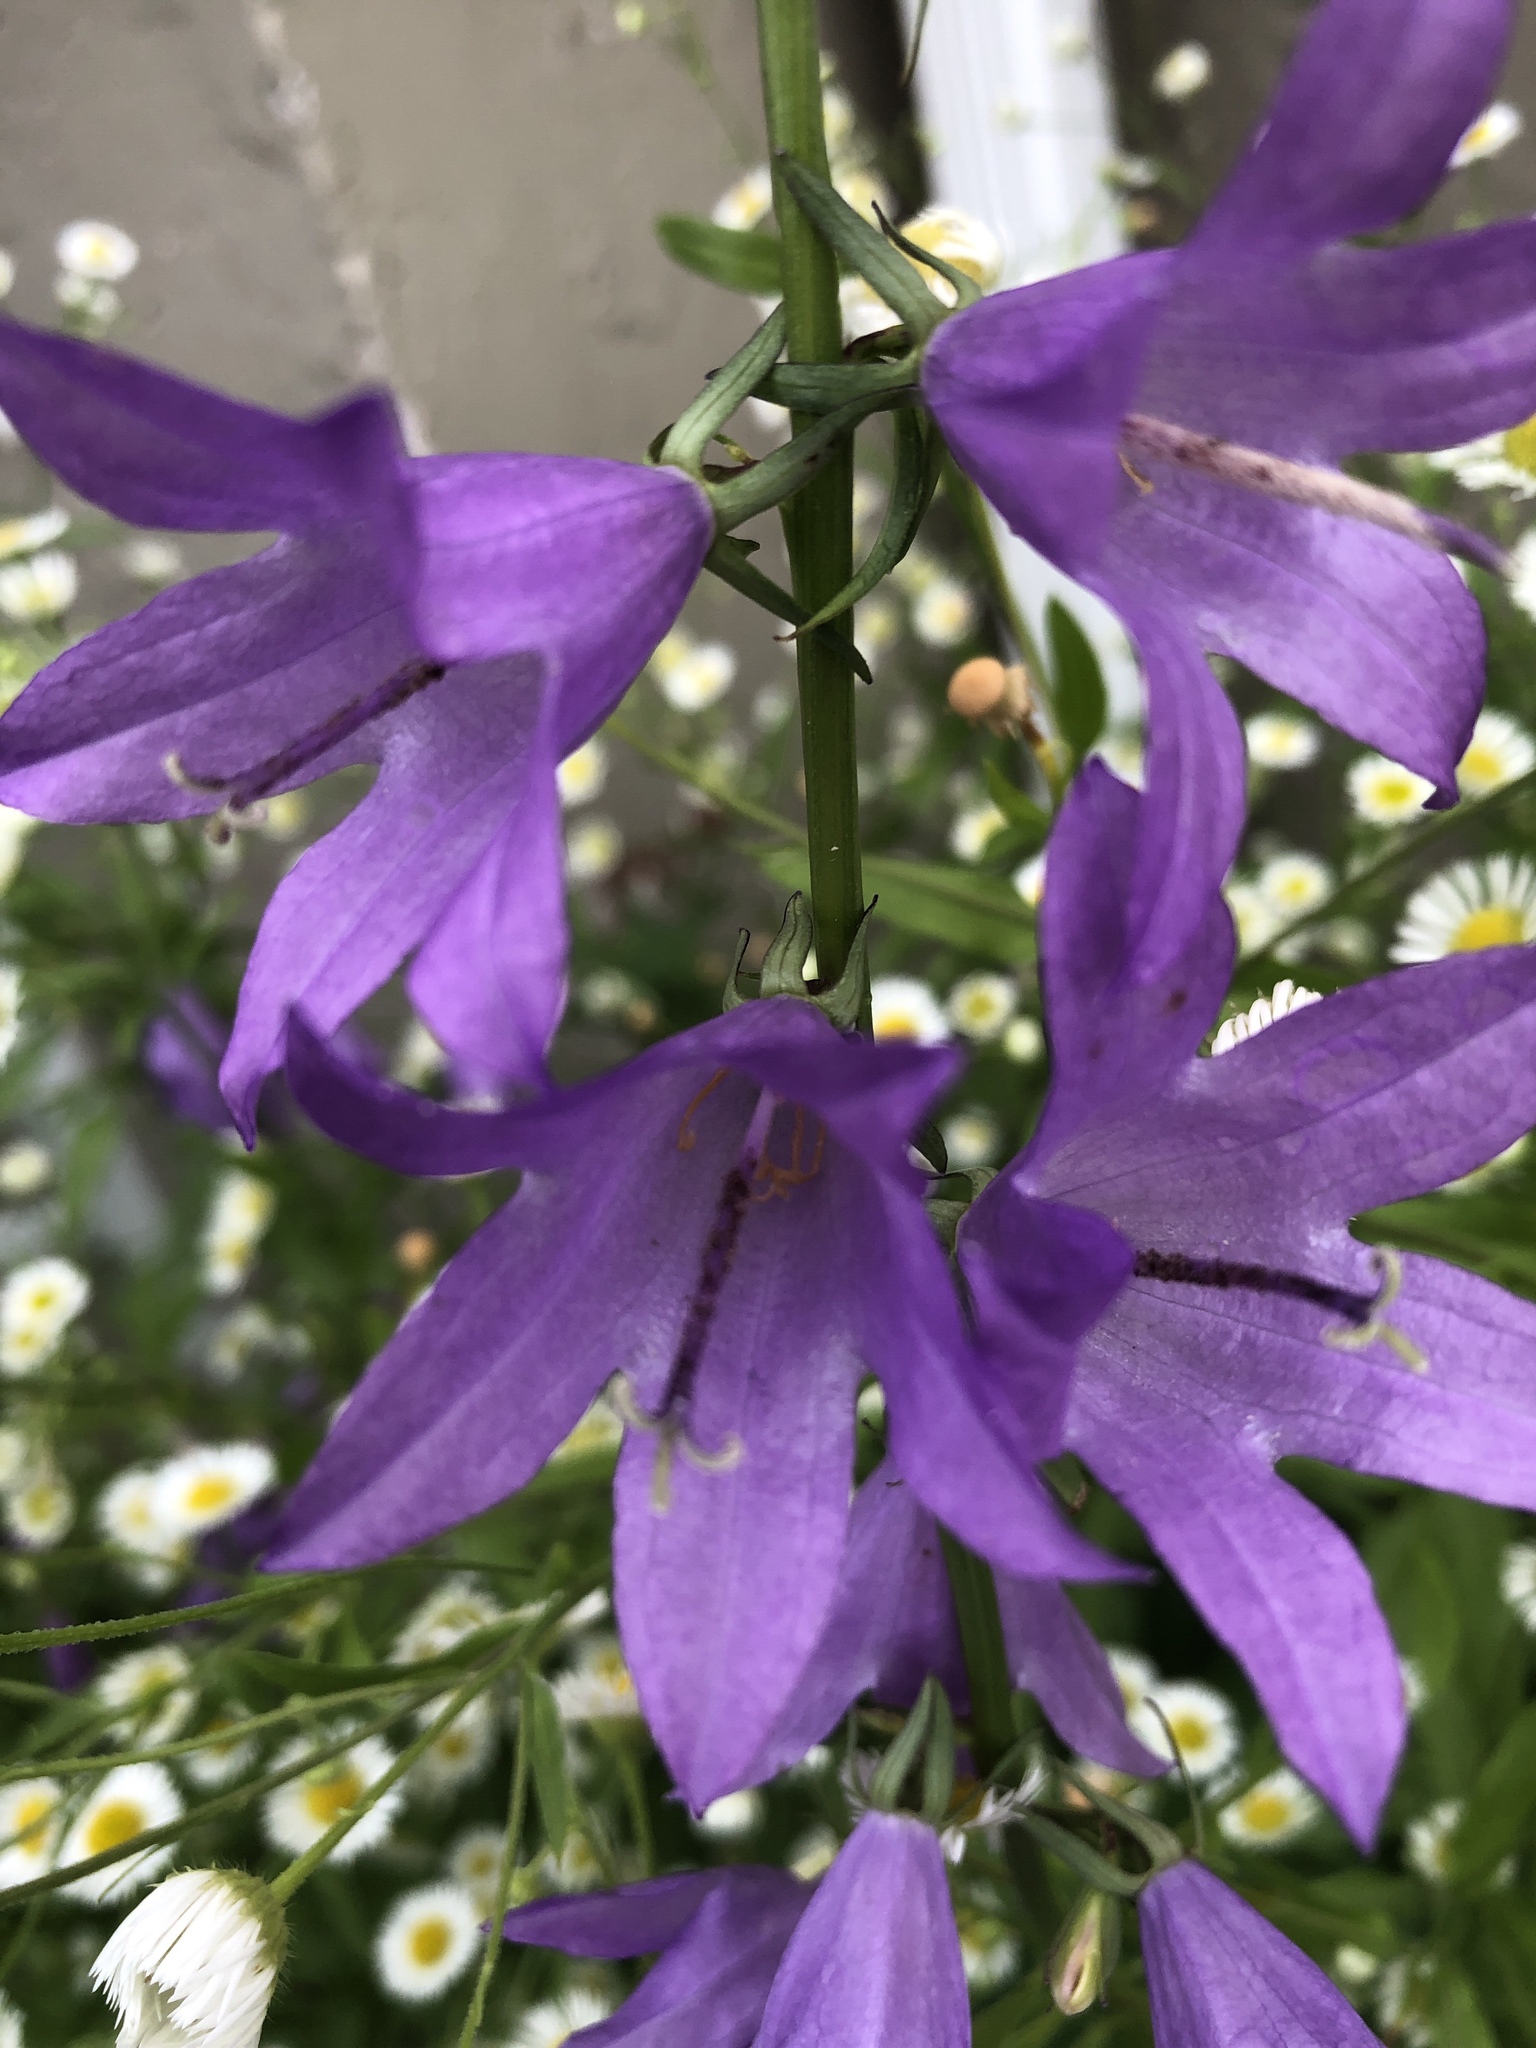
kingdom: Plantae
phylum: Tracheophyta
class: Magnoliopsida
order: Asterales
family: Campanulaceae
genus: Campanula
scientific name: Campanula rapunculoides
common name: Creeping bellflower
